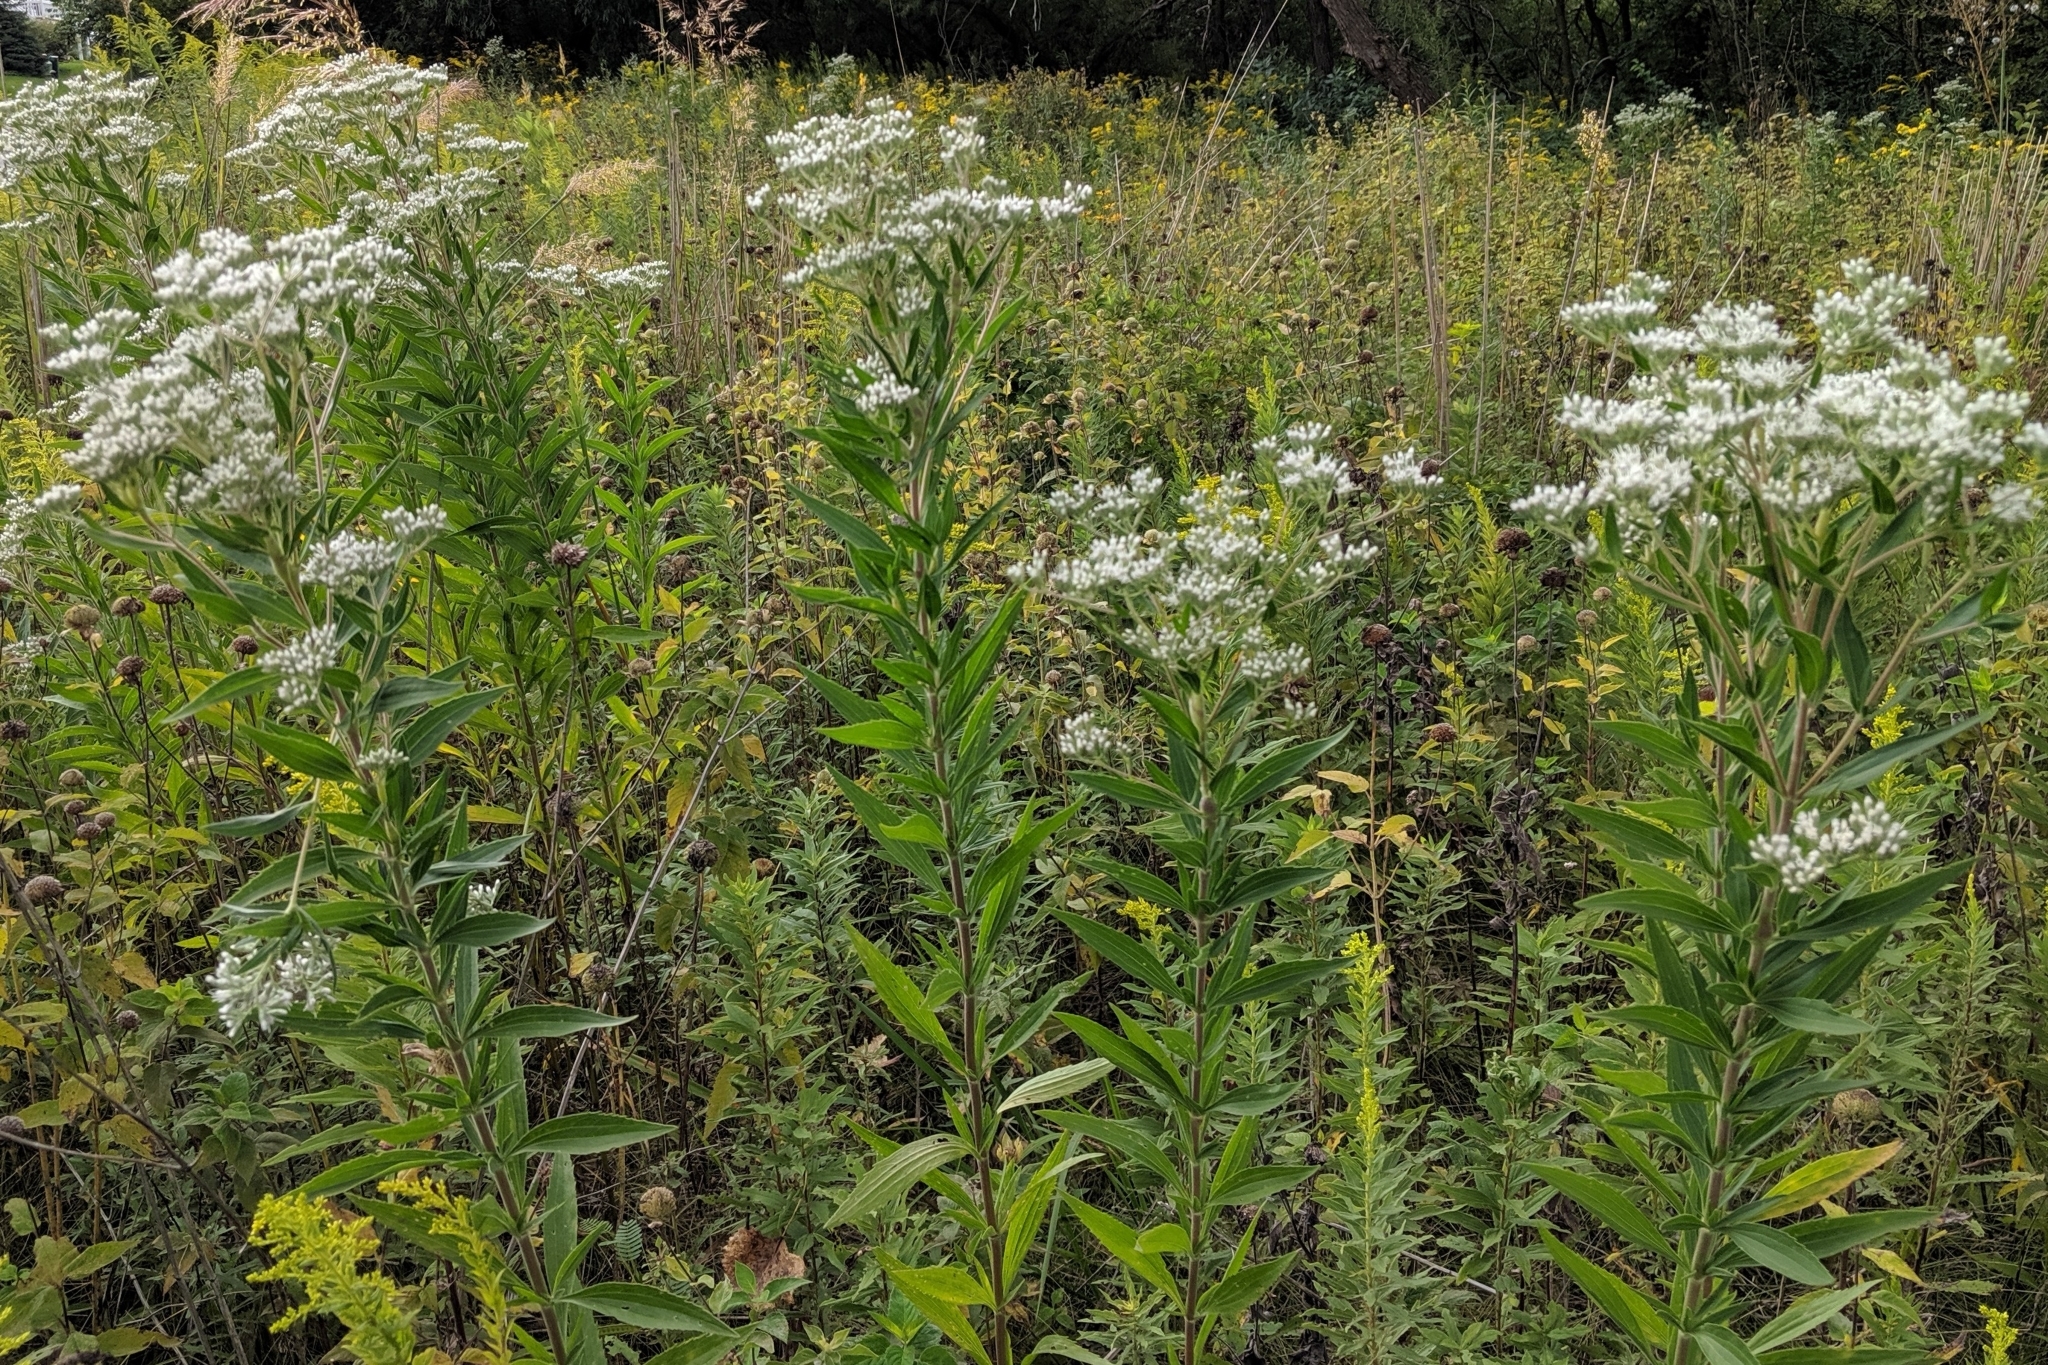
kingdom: Plantae
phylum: Tracheophyta
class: Magnoliopsida
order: Asterales
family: Asteraceae
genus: Eupatorium
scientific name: Eupatorium altissimum
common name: Tall thoroughwort
